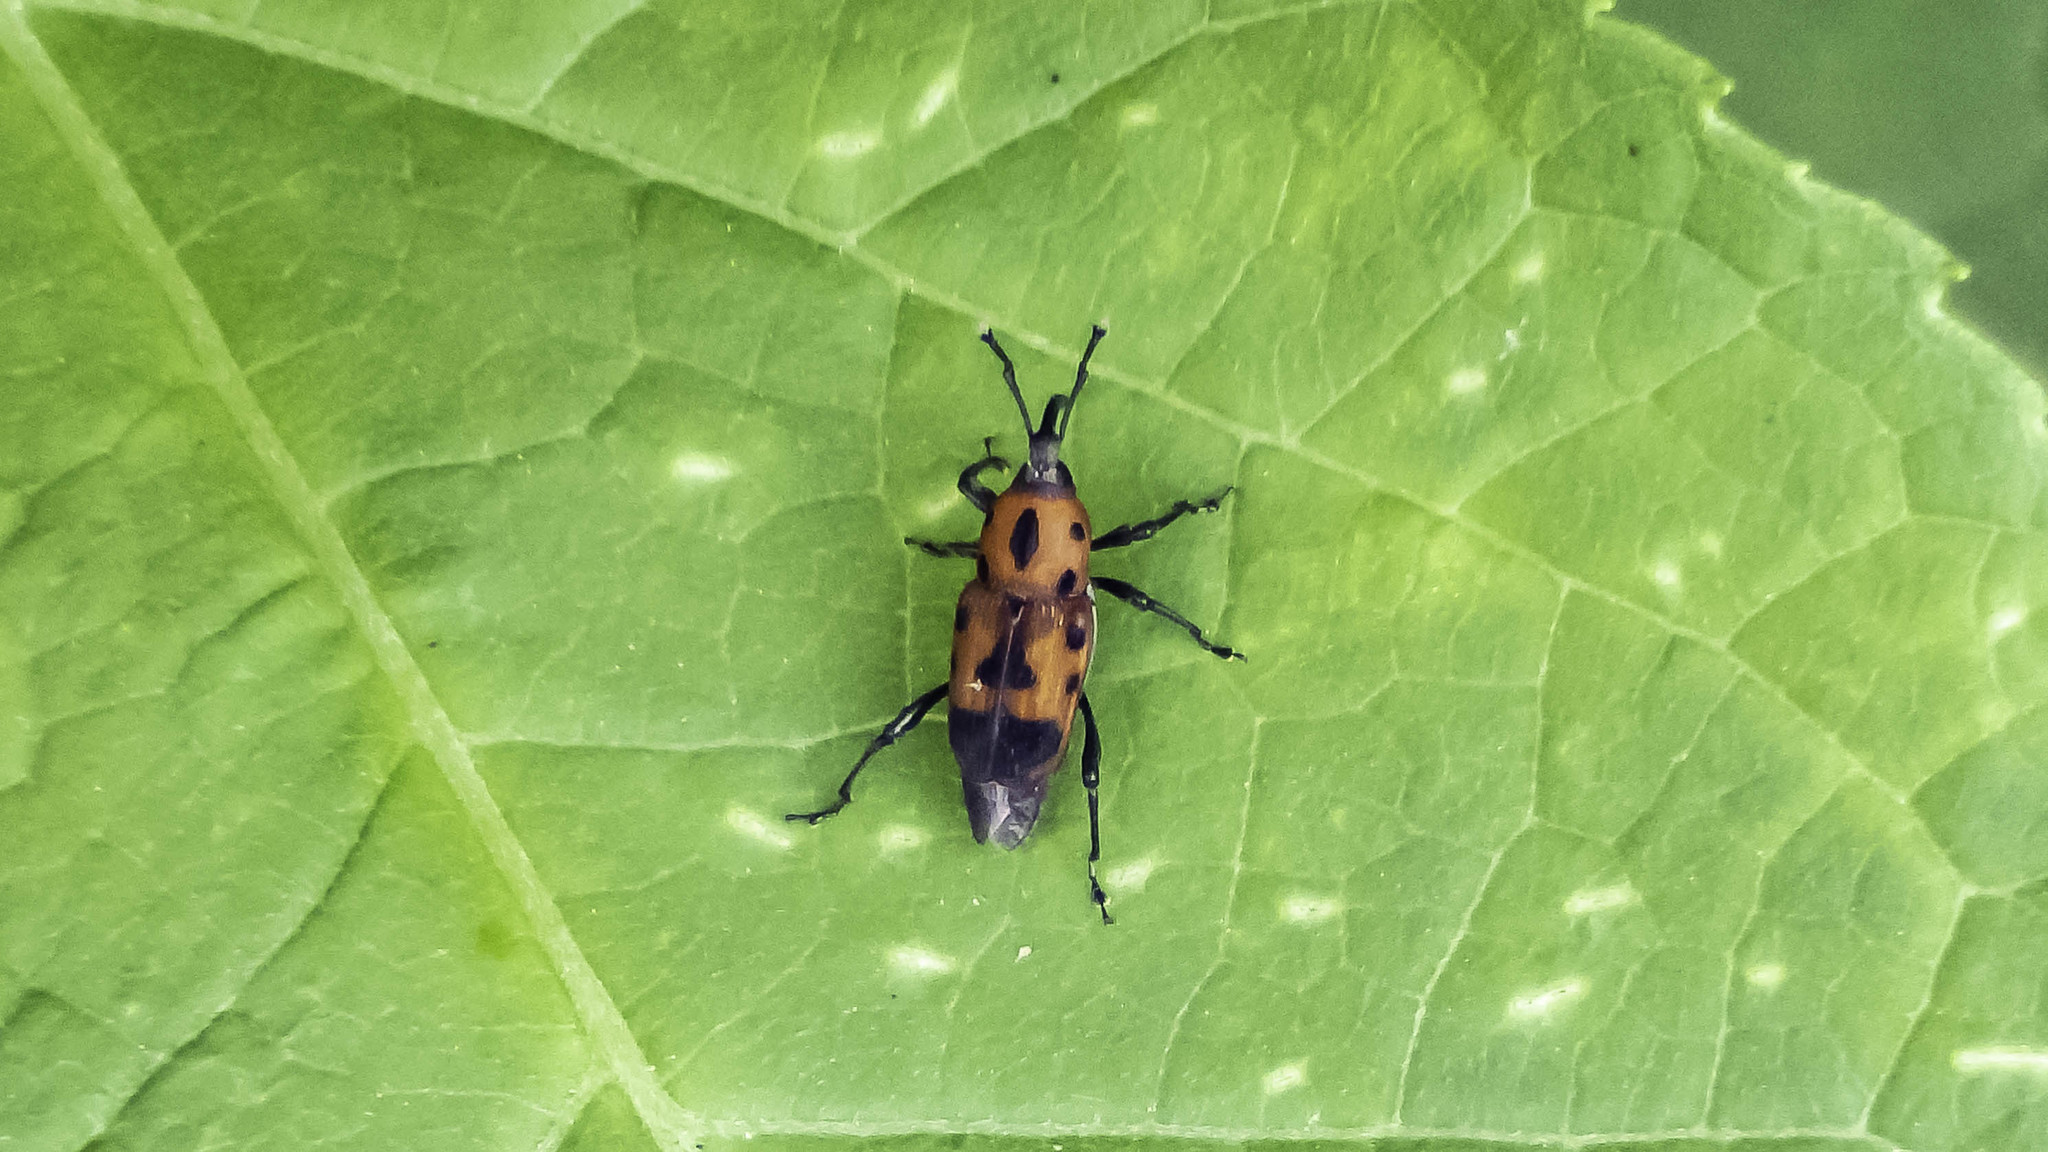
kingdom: Animalia
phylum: Arthropoda
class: Insecta
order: Coleoptera
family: Dryophthoridae
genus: Rhodobaenus
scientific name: Rhodobaenus quinquepunctatus
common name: Cocklebur weevil
